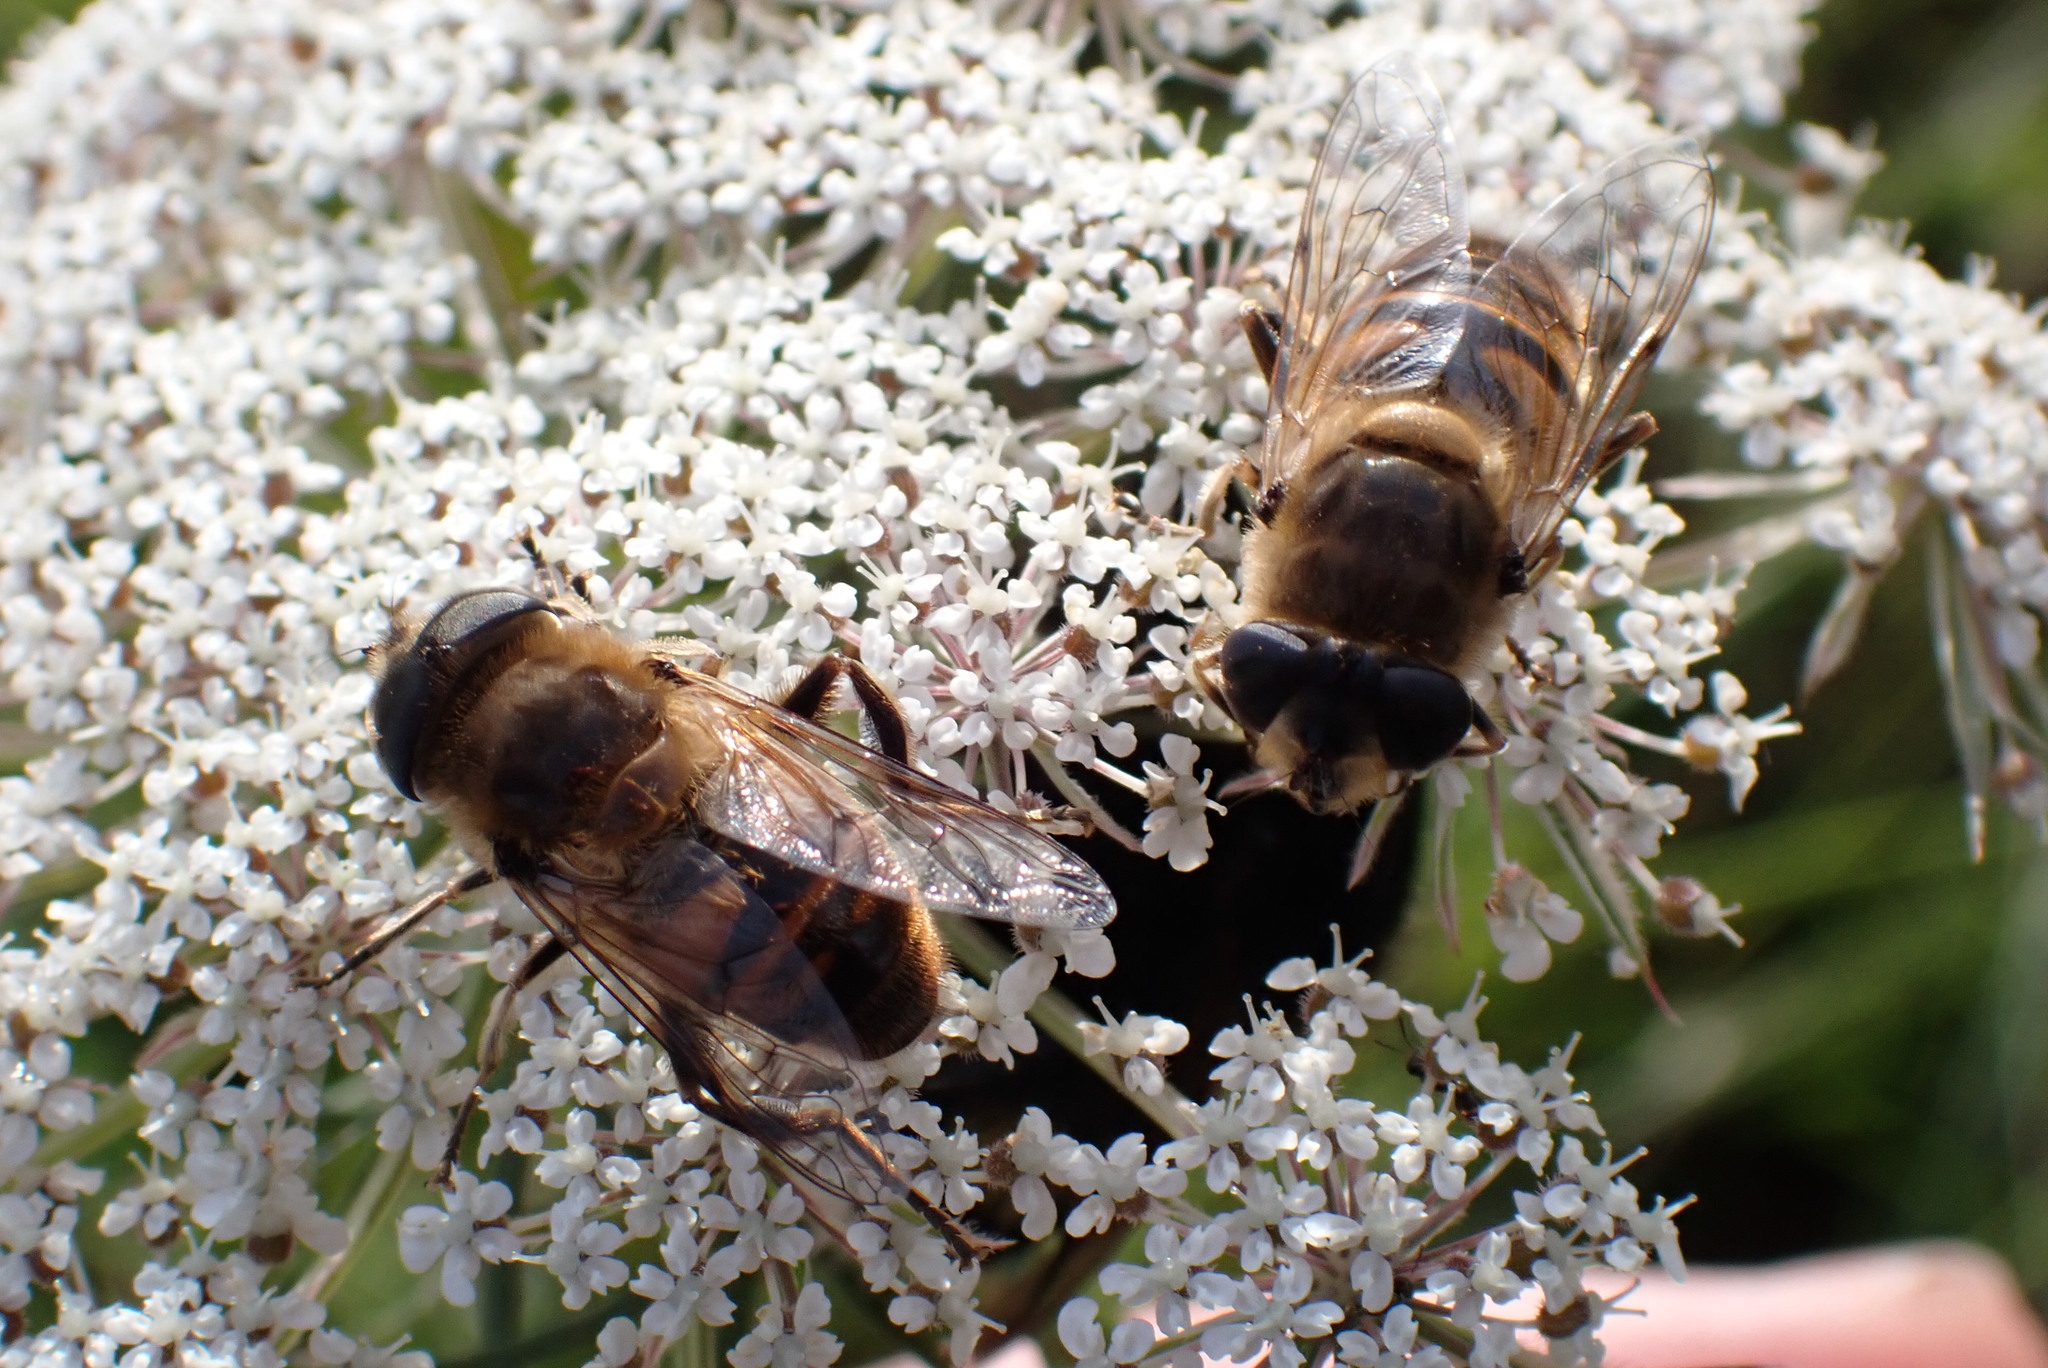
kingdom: Animalia
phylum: Arthropoda
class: Insecta
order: Diptera
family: Syrphidae
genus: Eristalis
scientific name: Eristalis tenax
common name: Drone fly
